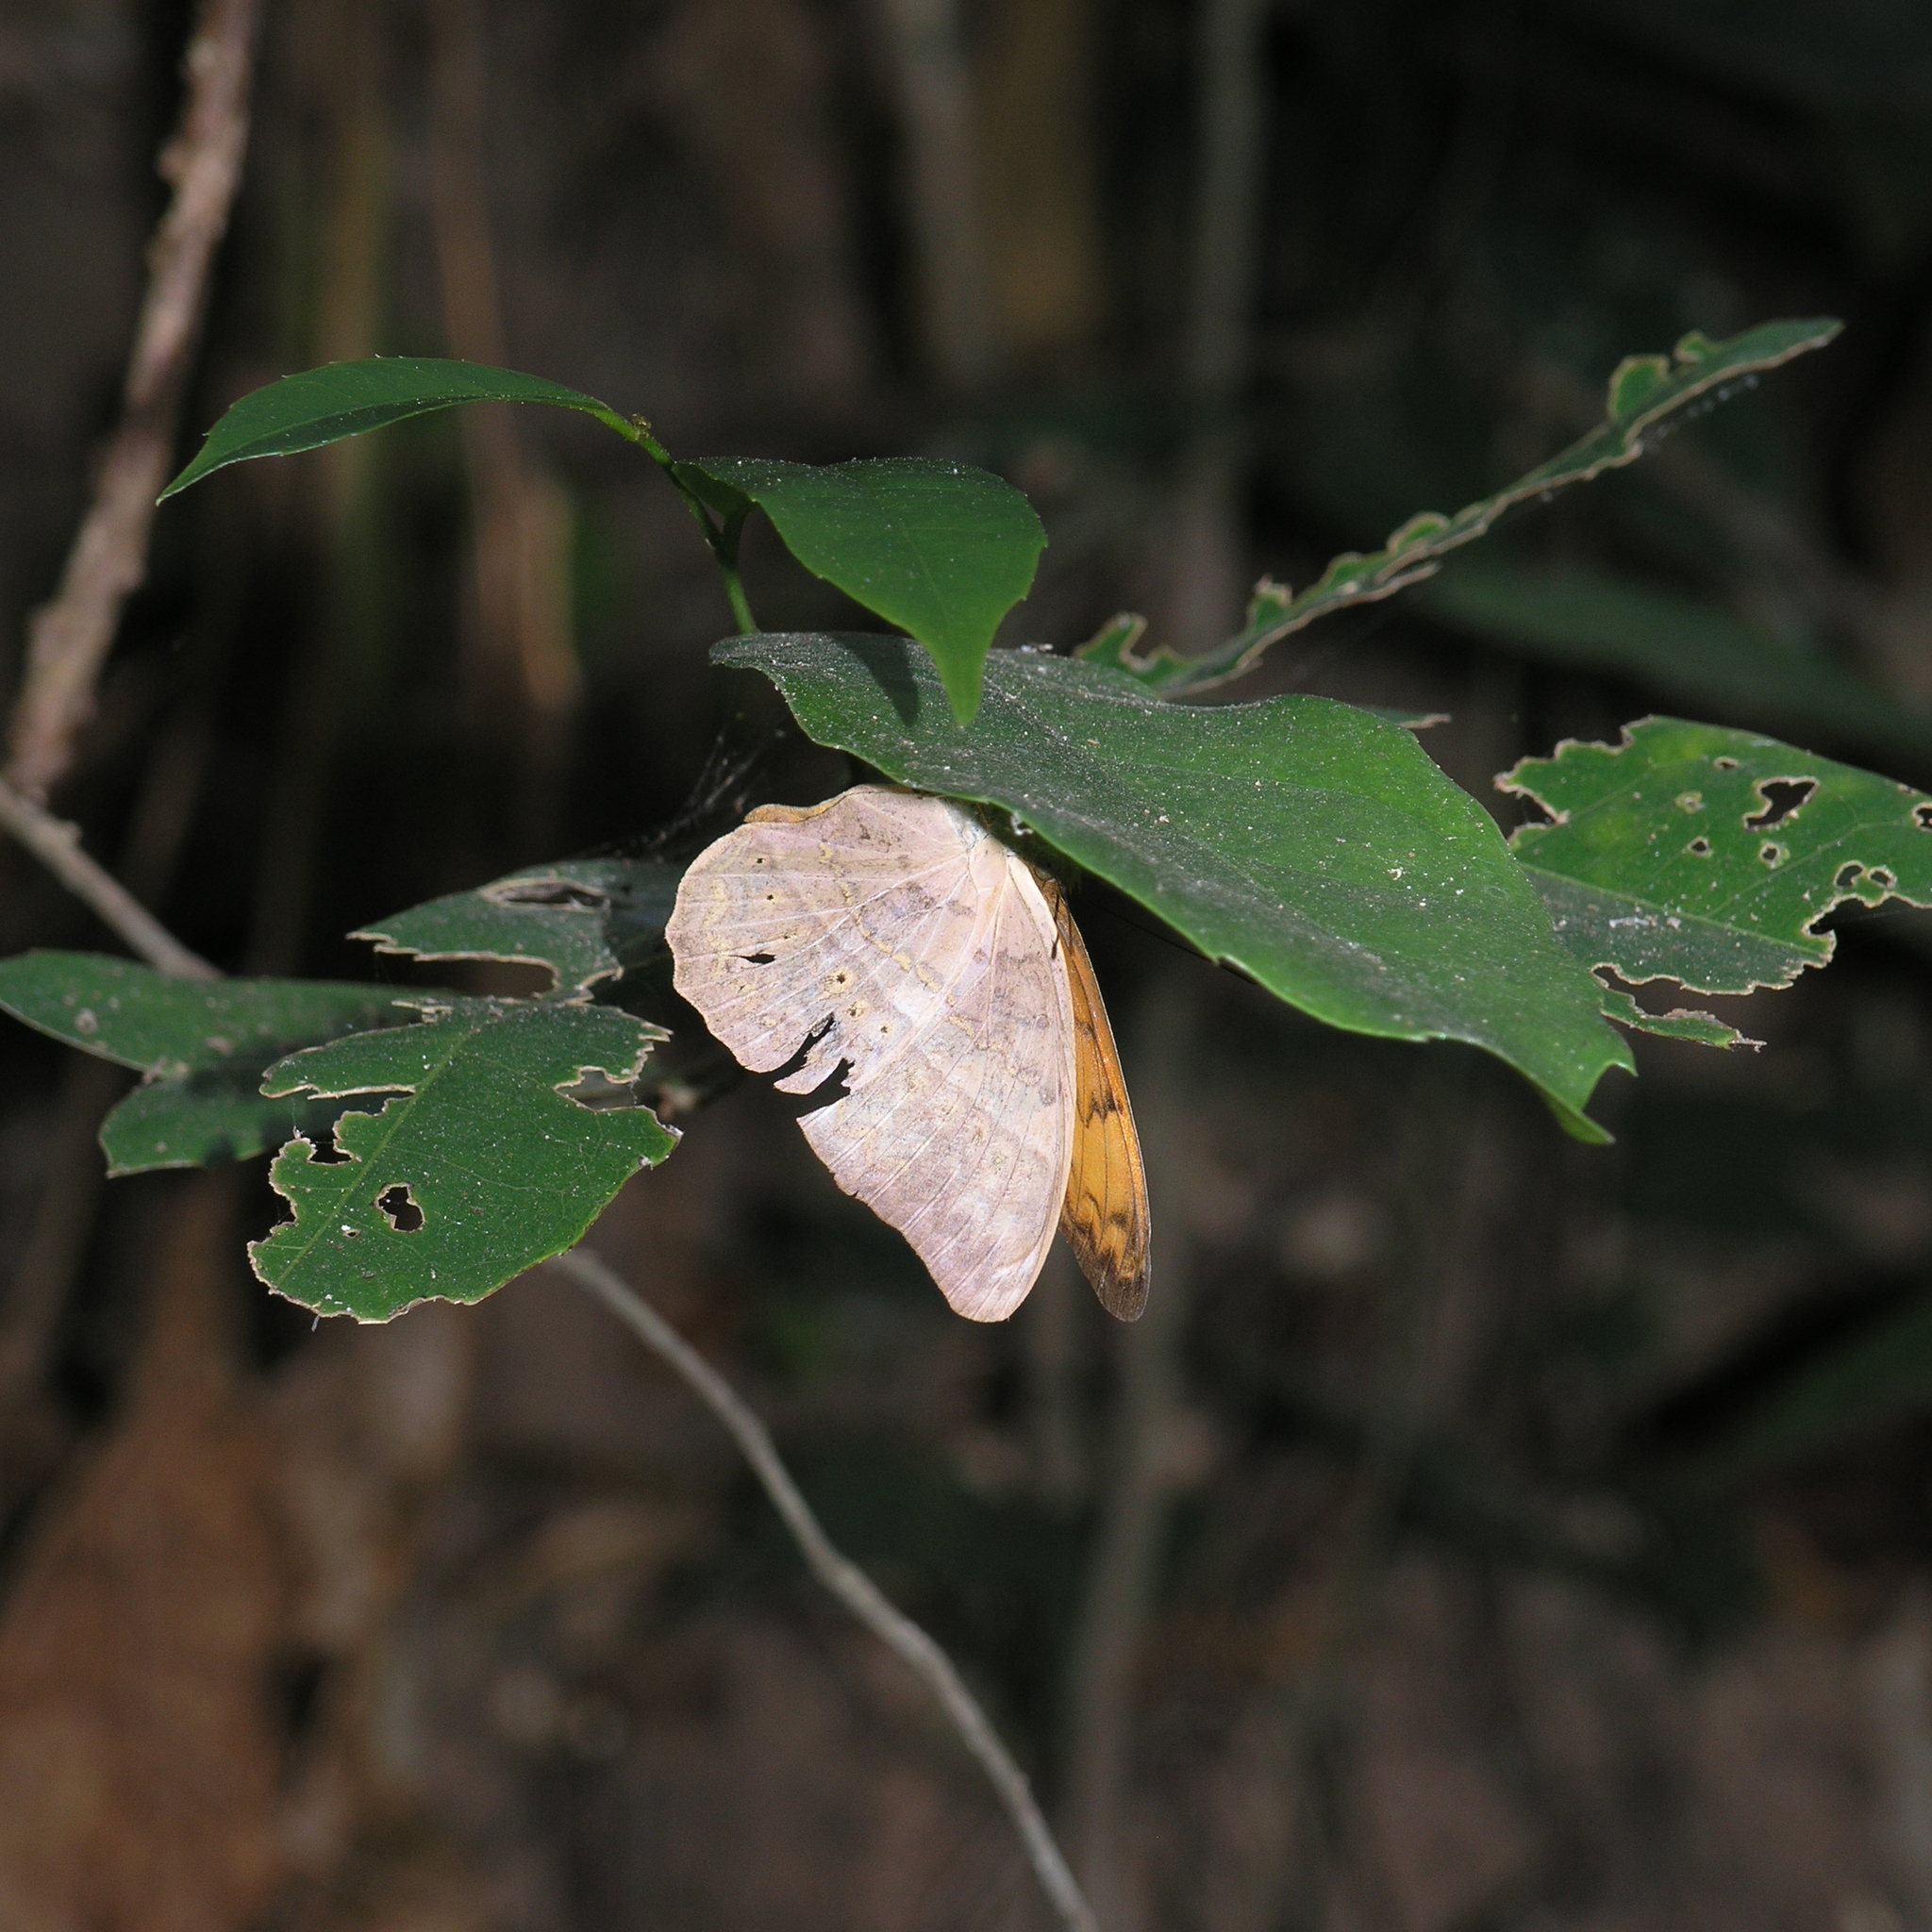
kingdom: Animalia
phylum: Arthropoda
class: Insecta
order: Lepidoptera
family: Nymphalidae
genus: Cirrochroa
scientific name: Cirrochroa tyche
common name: Common yeoman
